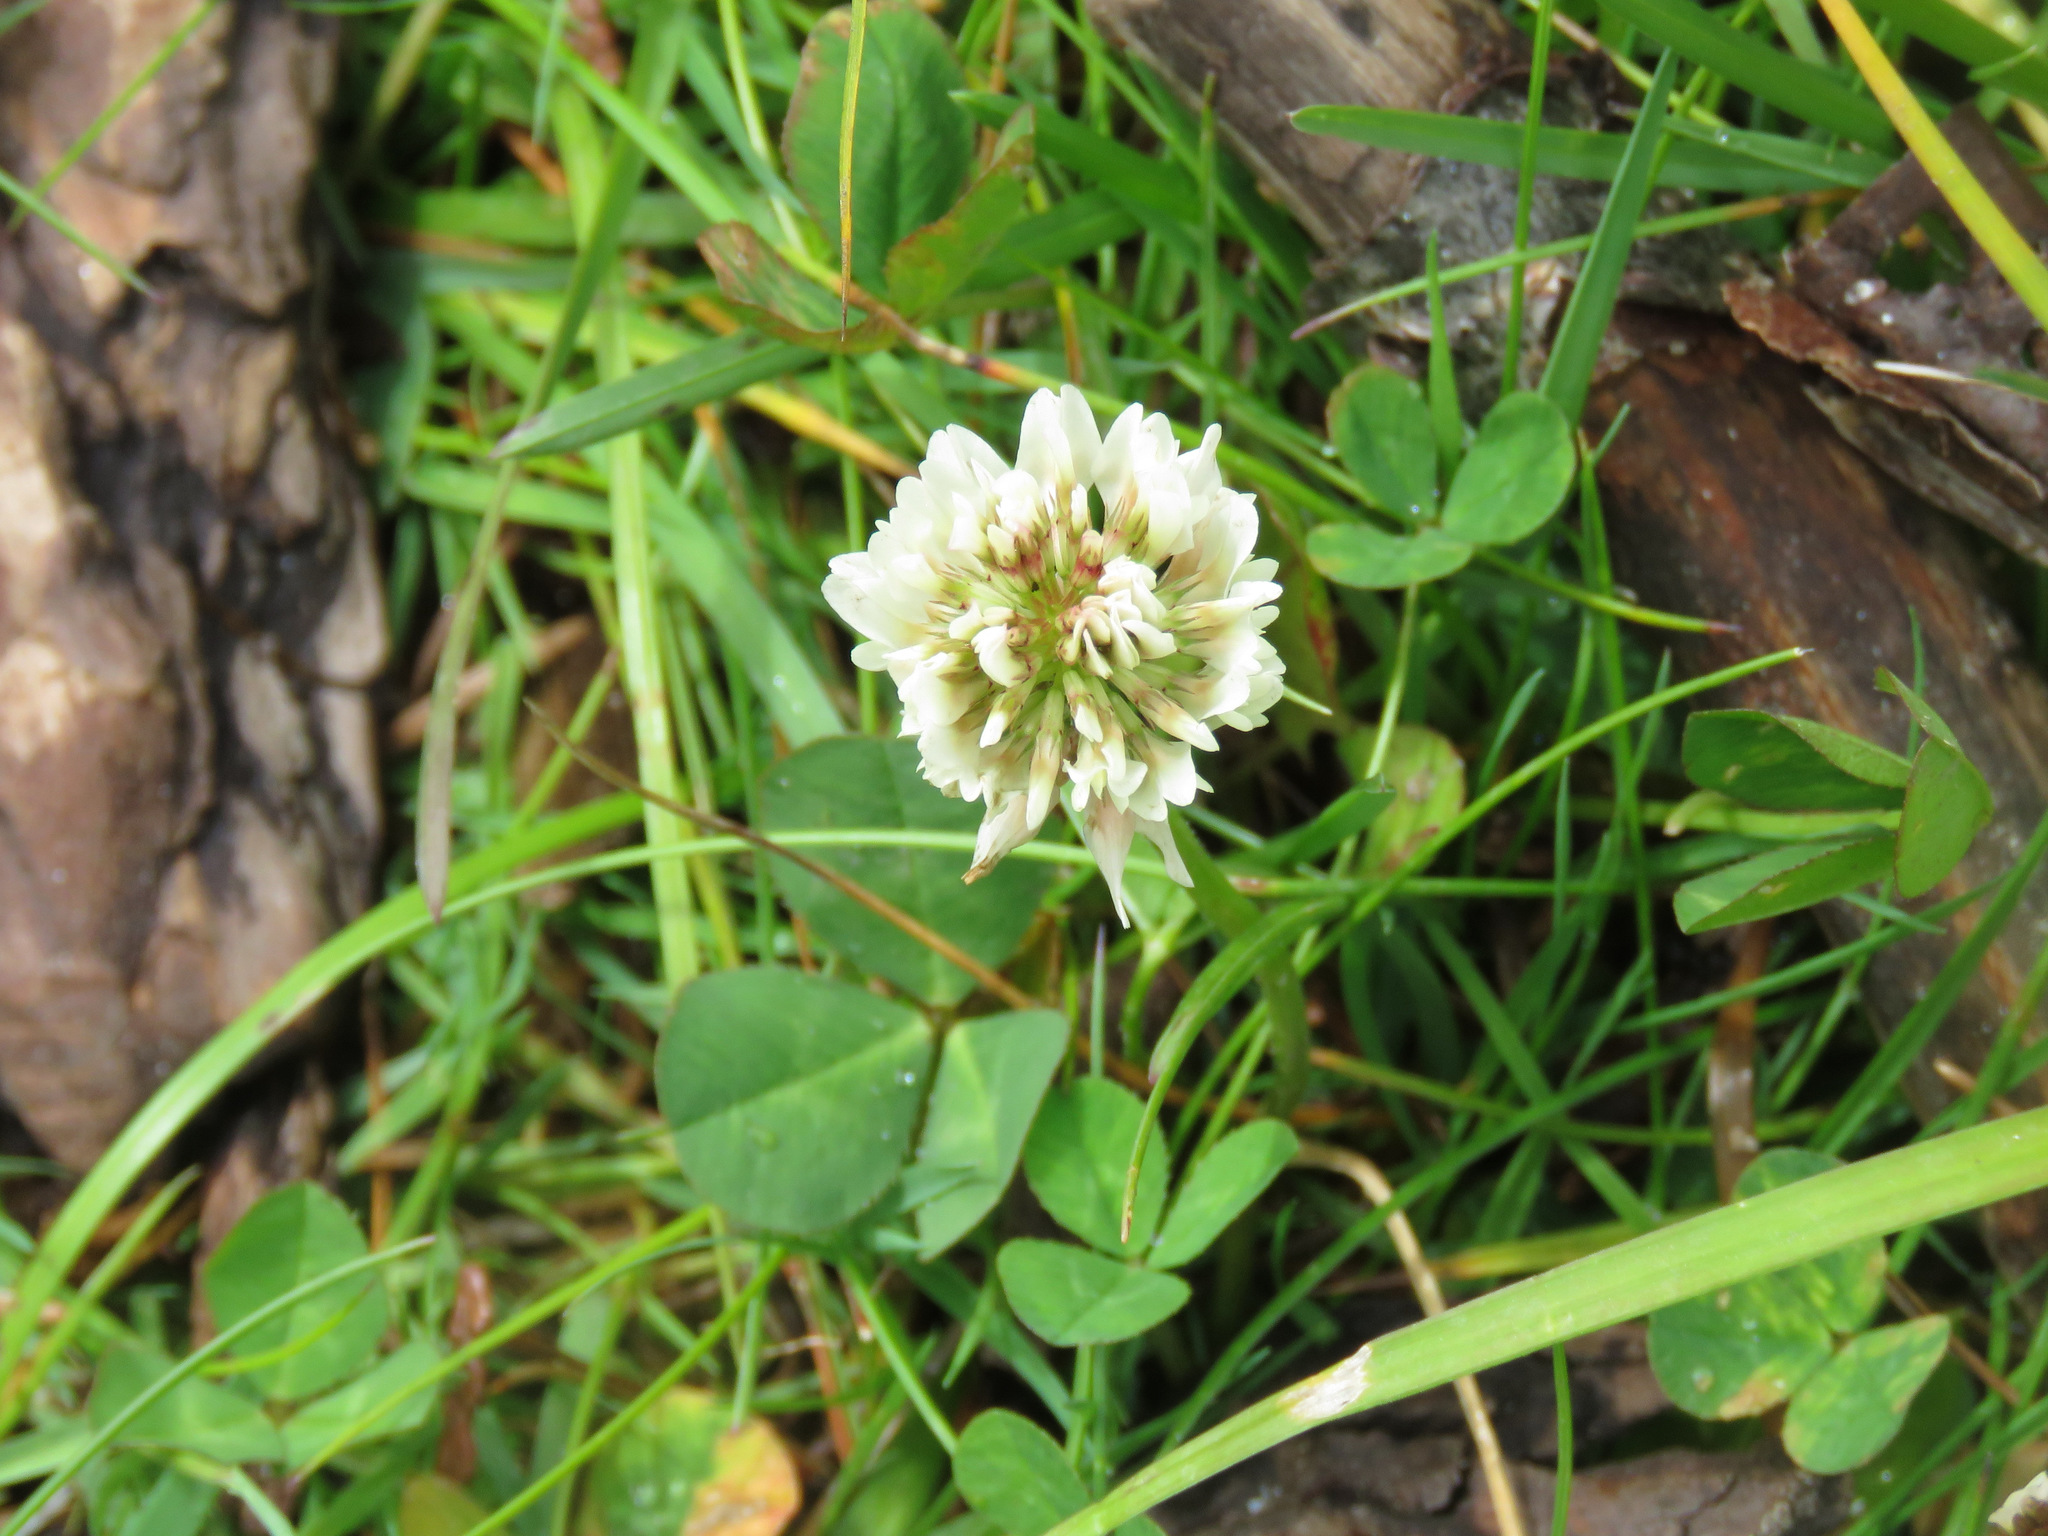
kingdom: Plantae
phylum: Tracheophyta
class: Magnoliopsida
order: Fabales
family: Fabaceae
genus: Trifolium
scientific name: Trifolium repens
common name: White clover
